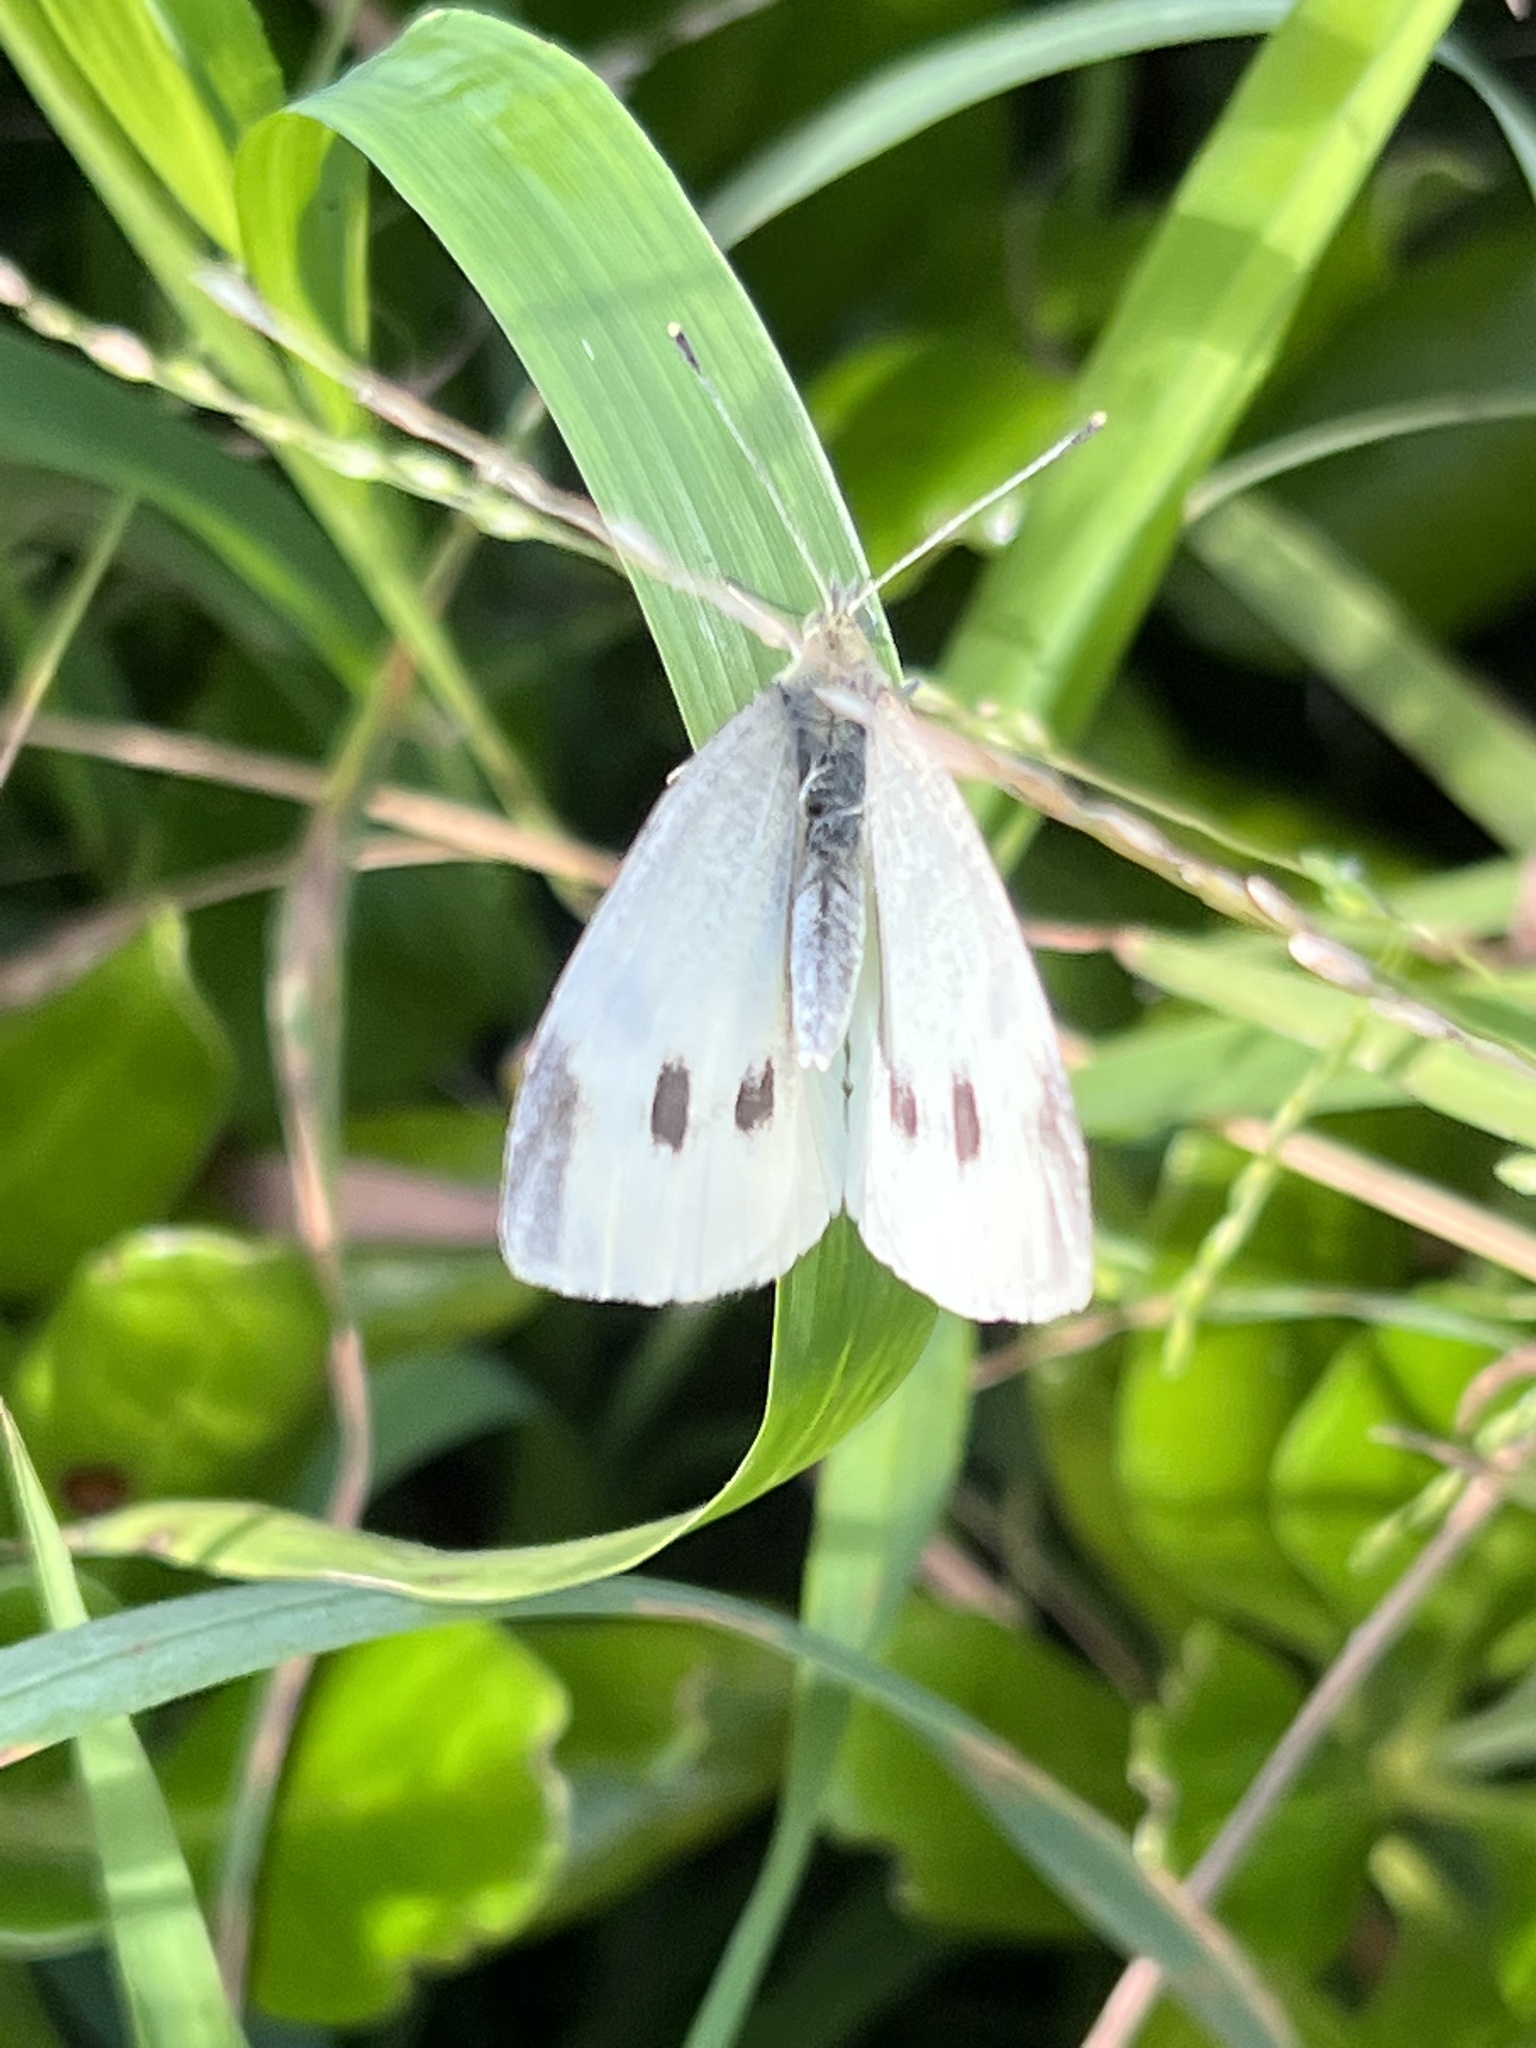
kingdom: Animalia
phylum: Arthropoda
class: Insecta
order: Lepidoptera
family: Pieridae
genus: Pieris
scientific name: Pieris rapae
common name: Small white
